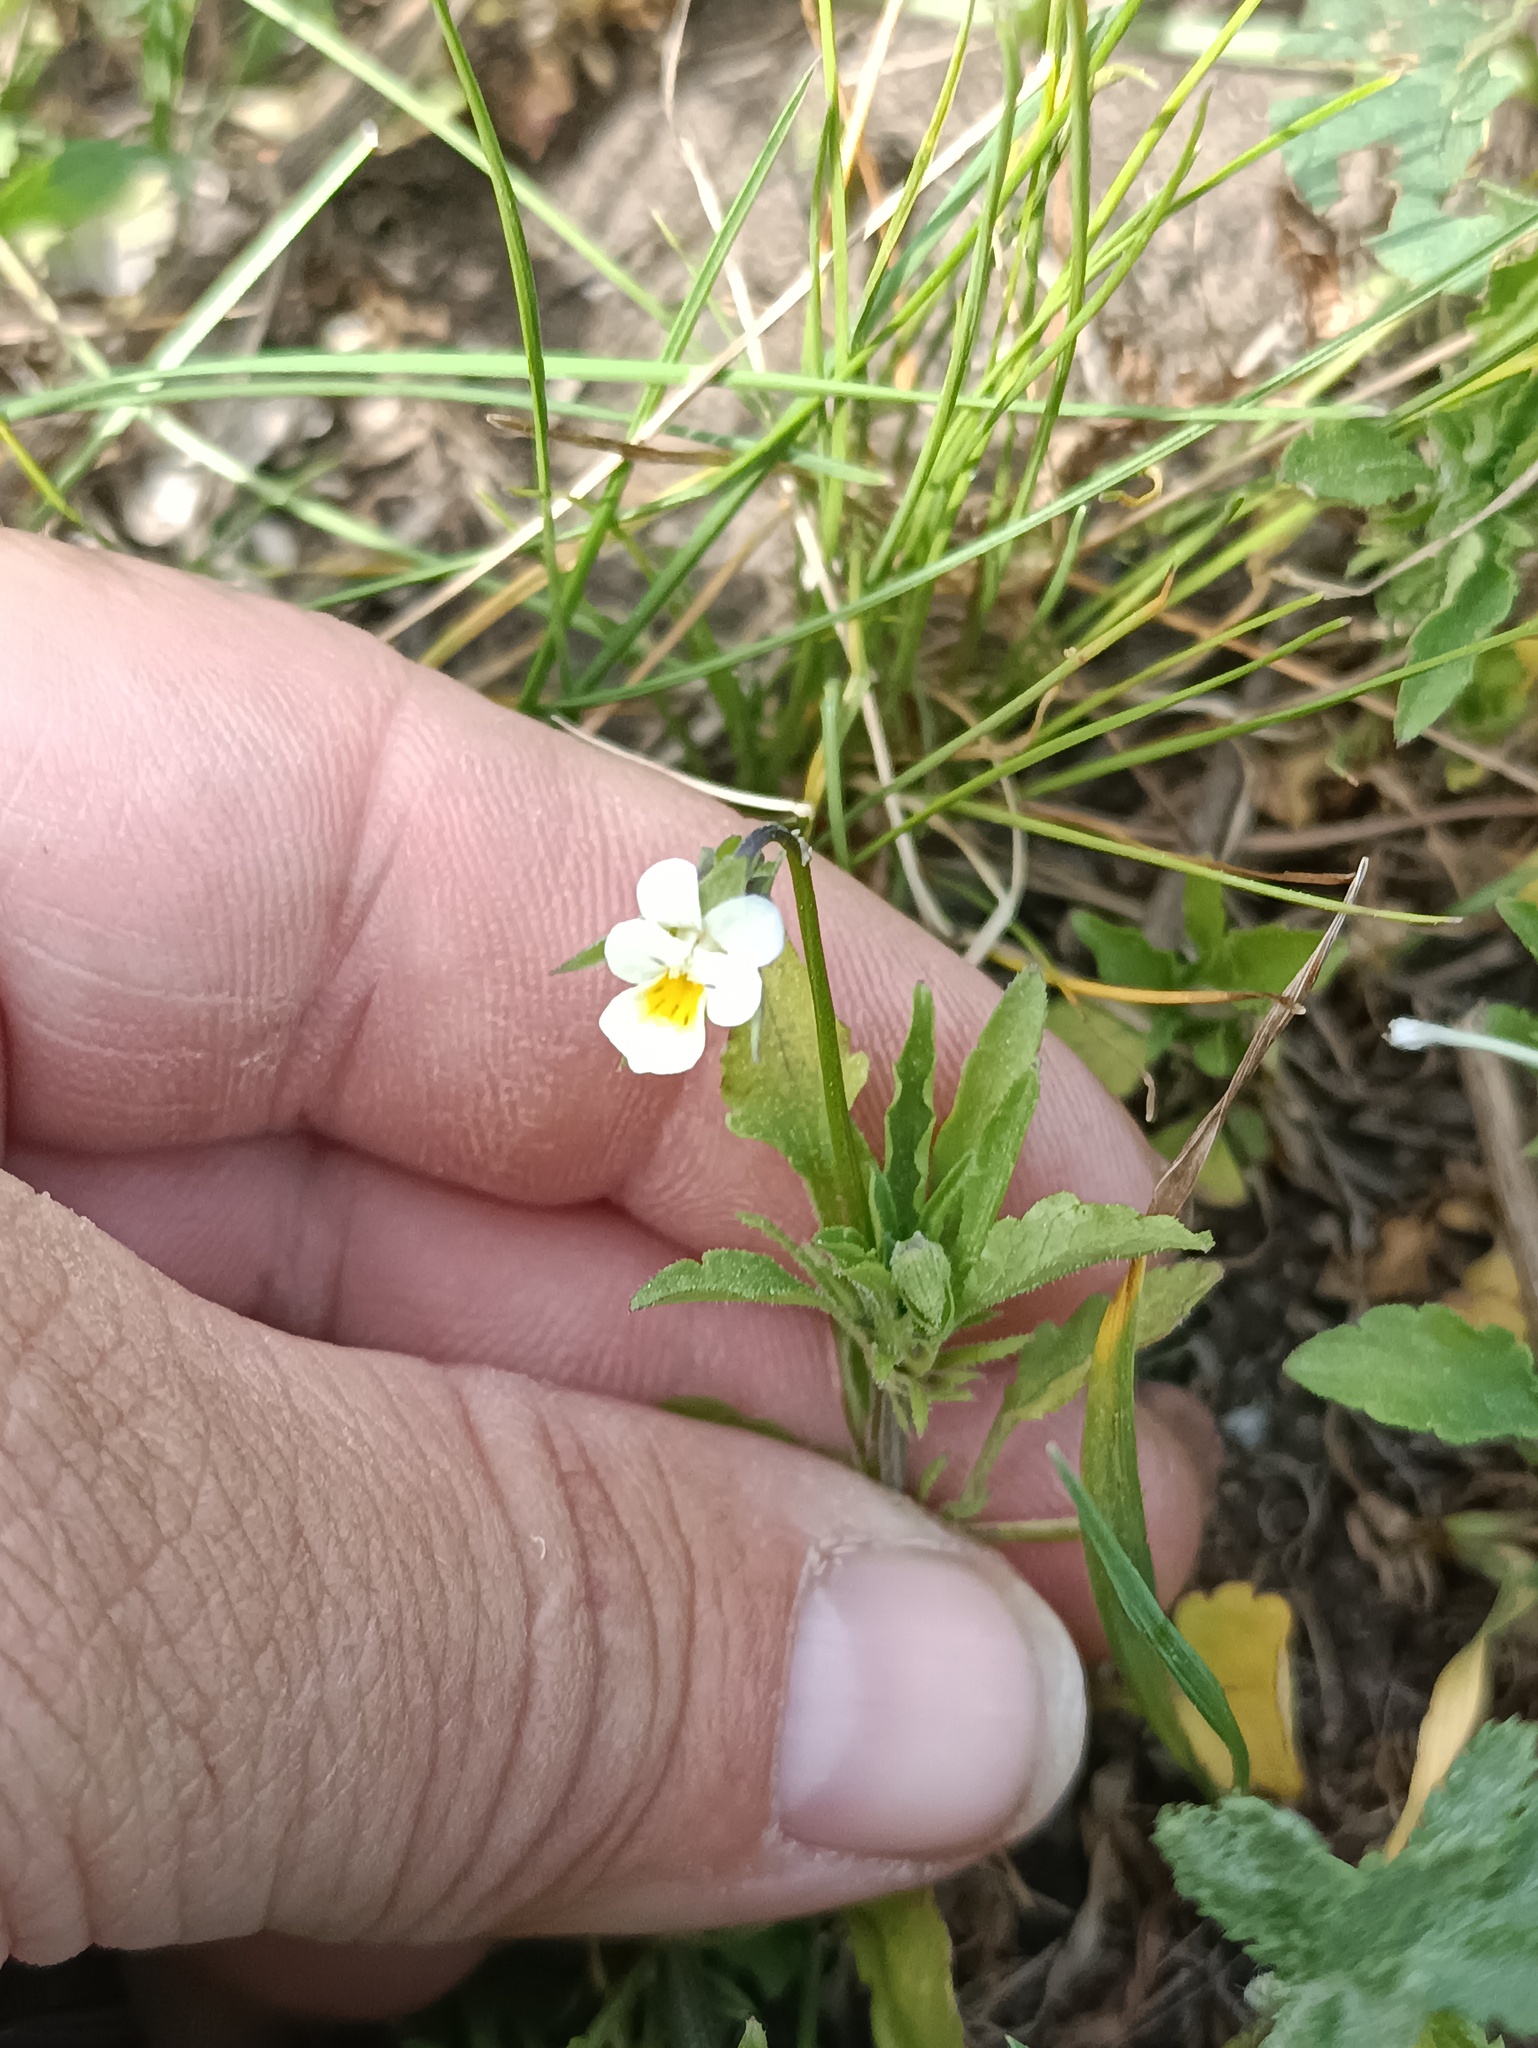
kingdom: Plantae
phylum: Tracheophyta
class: Magnoliopsida
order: Malpighiales
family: Violaceae
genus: Viola
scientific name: Viola arvensis
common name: Field pansy
